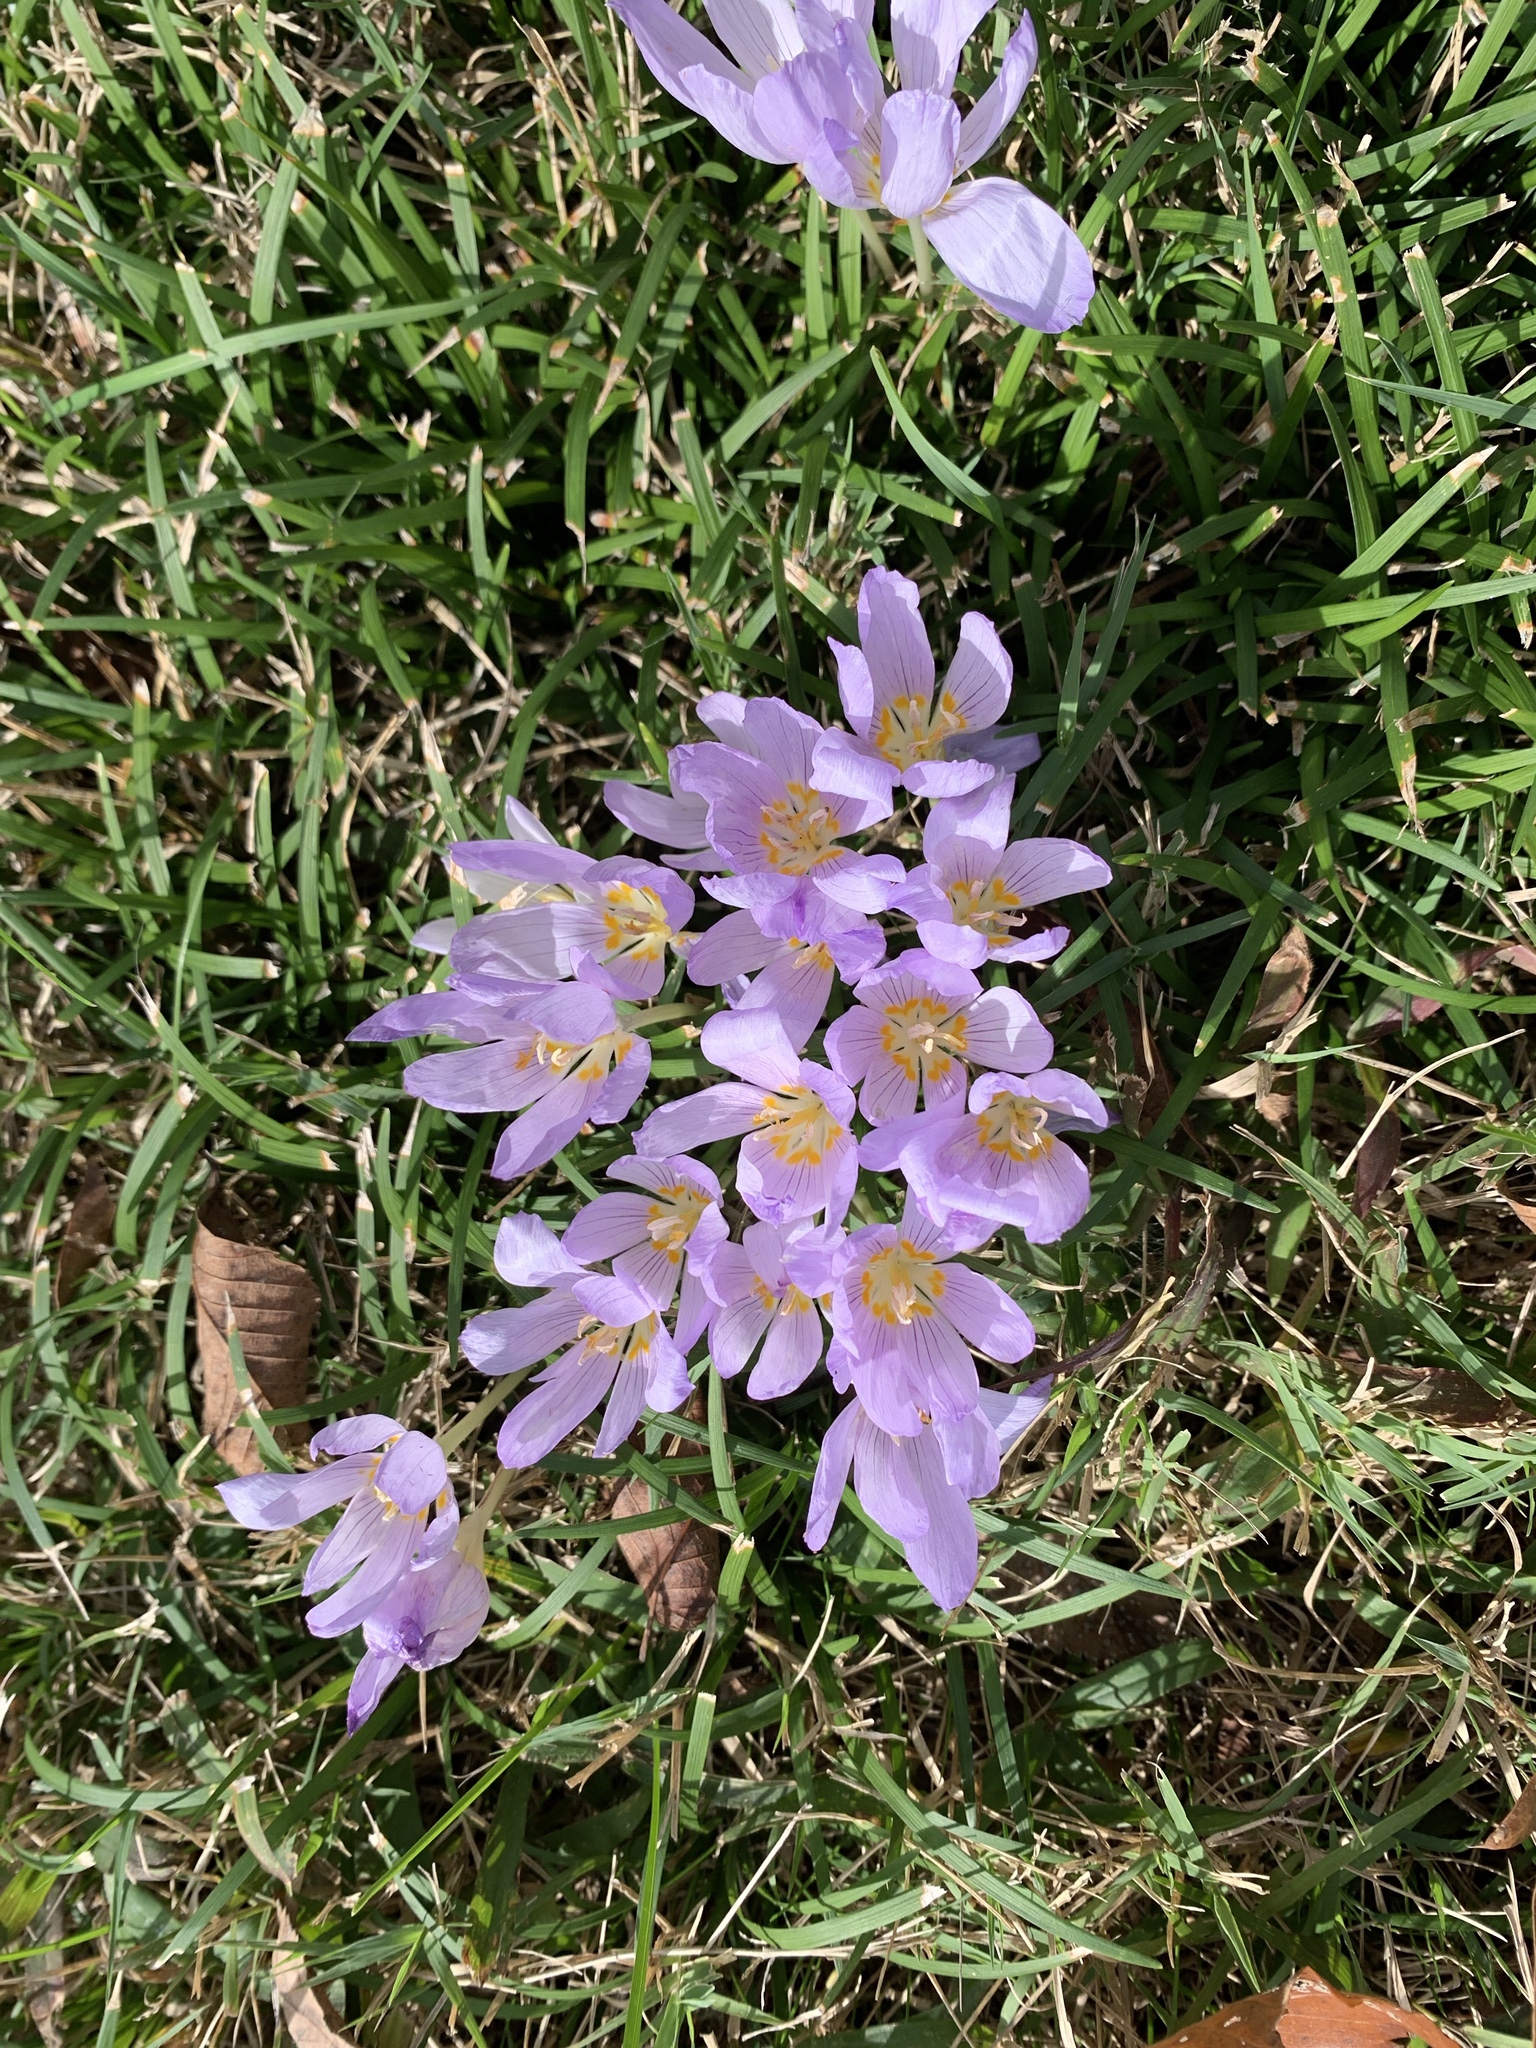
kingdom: Plantae
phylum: Tracheophyta
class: Liliopsida
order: Asparagales
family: Iridaceae
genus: Crocus
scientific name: Crocus kotschyanus
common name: Kotschy's crocus
